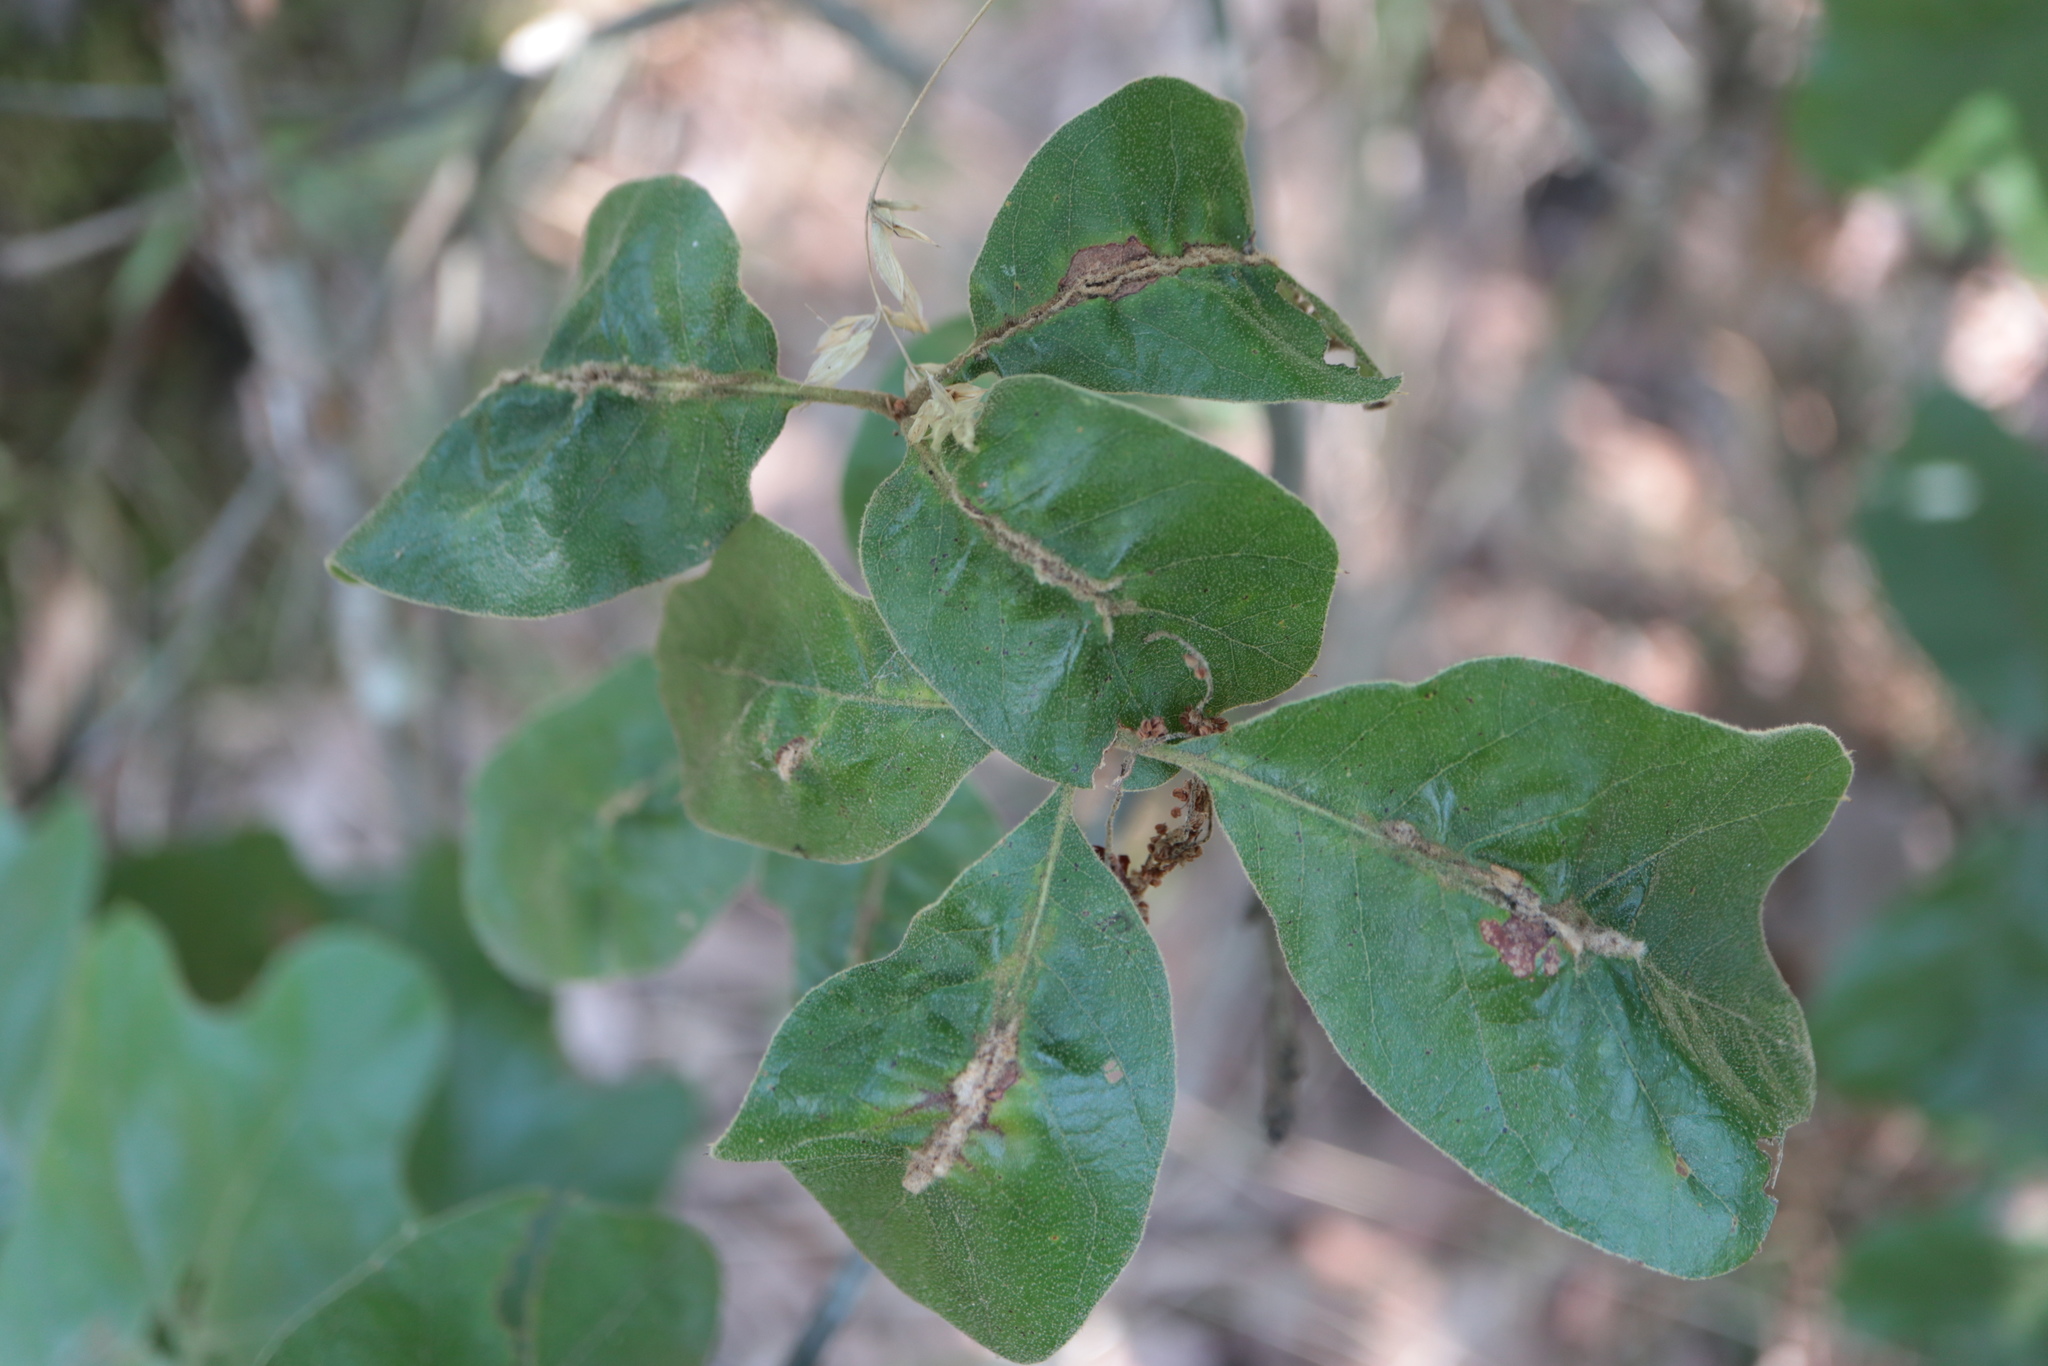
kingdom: Animalia
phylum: Arthropoda
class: Insecta
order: Diptera
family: Cecidomyiidae
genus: Macrodiplosis
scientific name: Macrodiplosis niveipila
